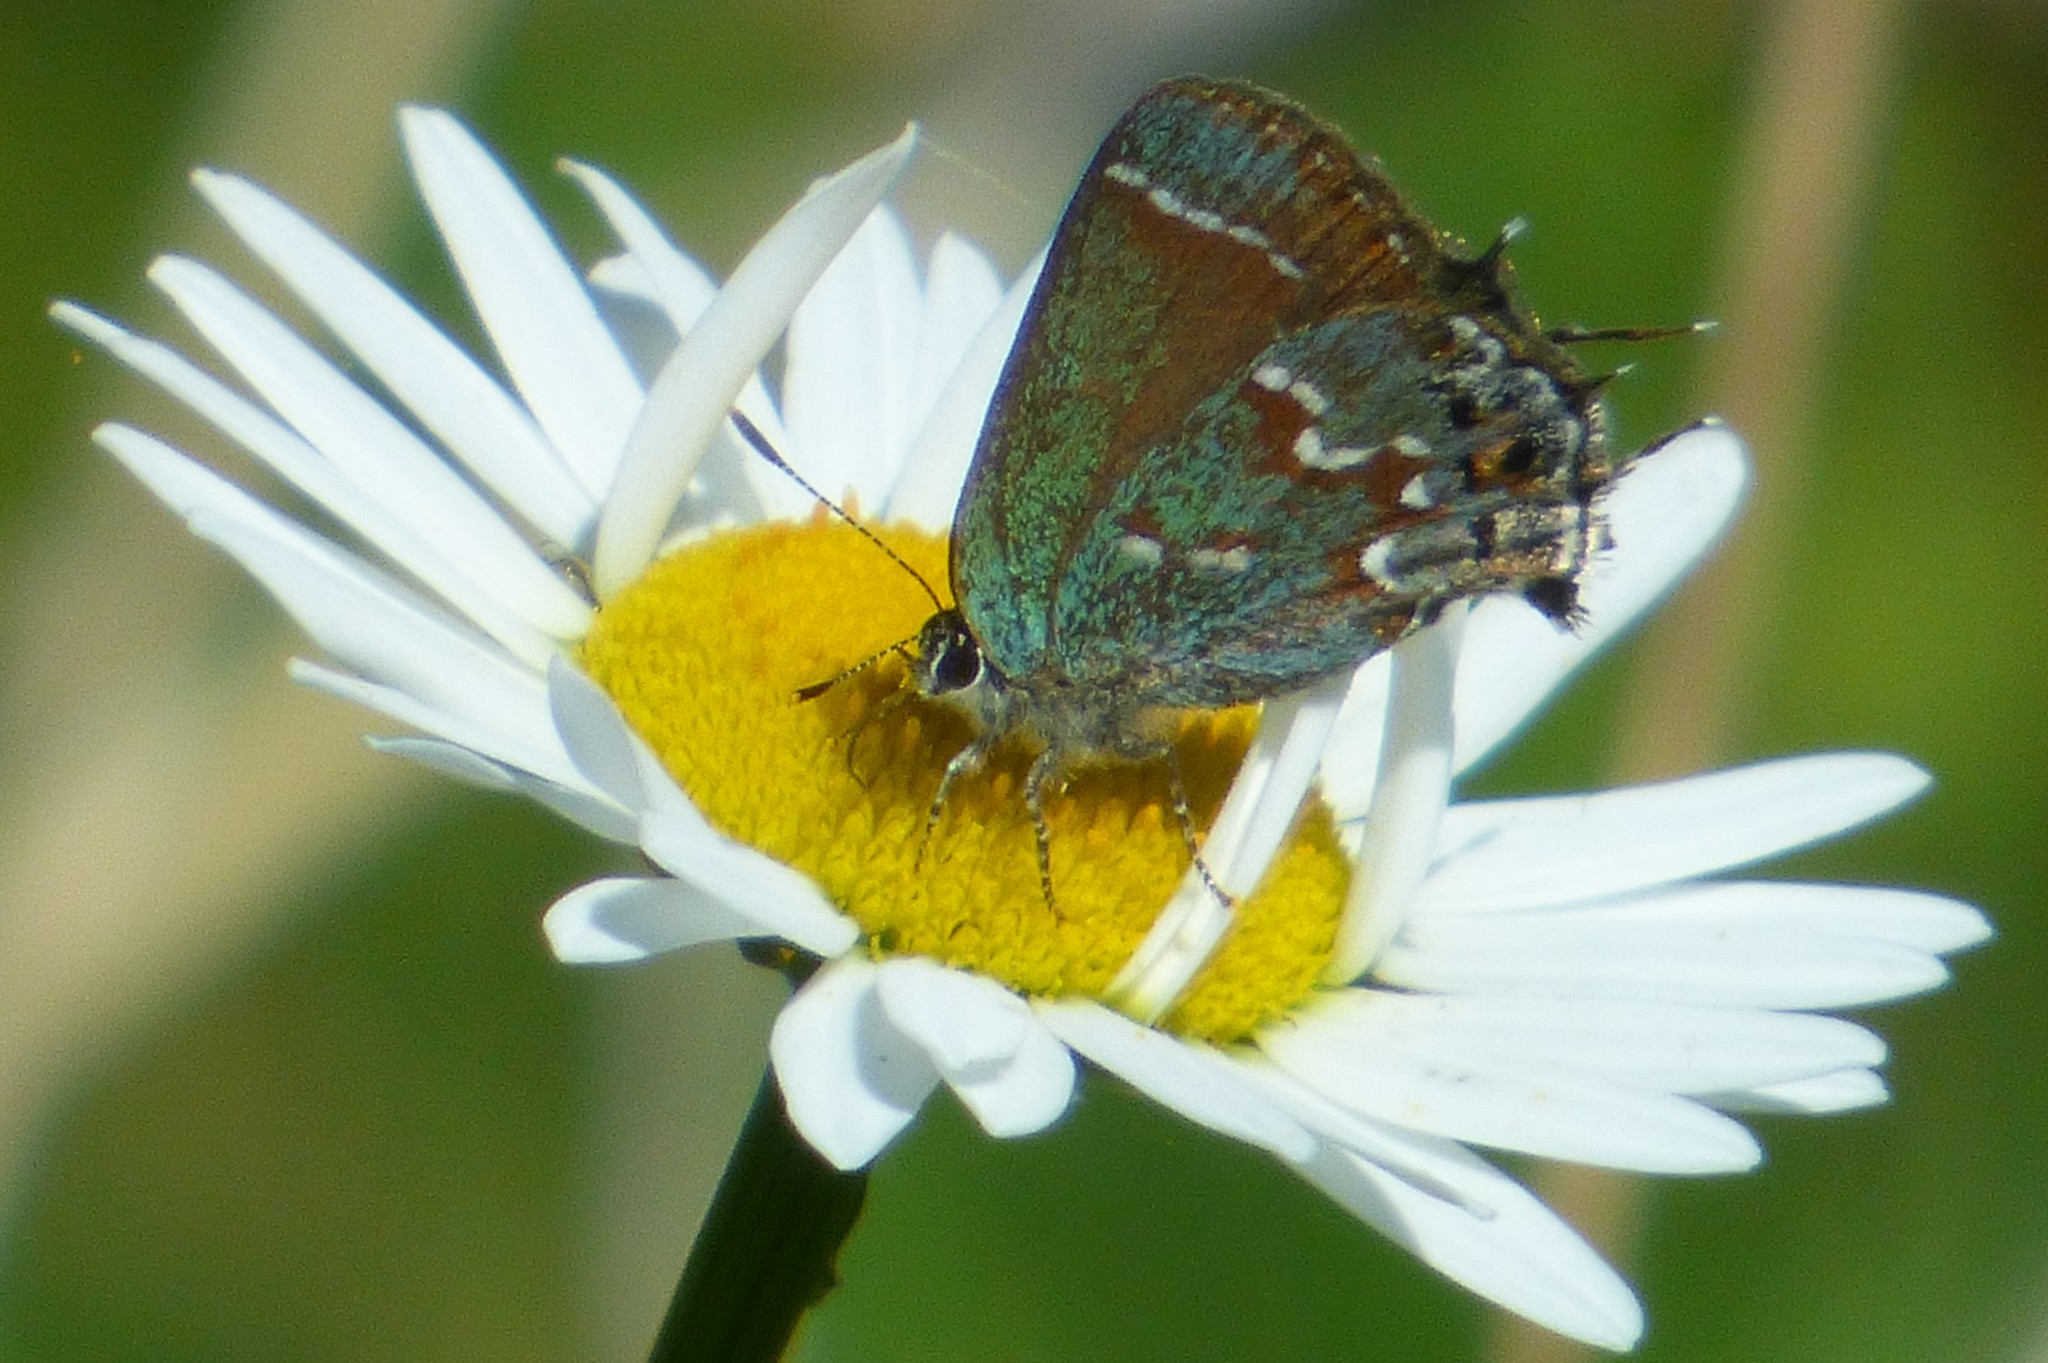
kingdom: Animalia
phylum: Arthropoda
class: Insecta
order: Lepidoptera
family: Lycaenidae
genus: Mitoura
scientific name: Mitoura gryneus
